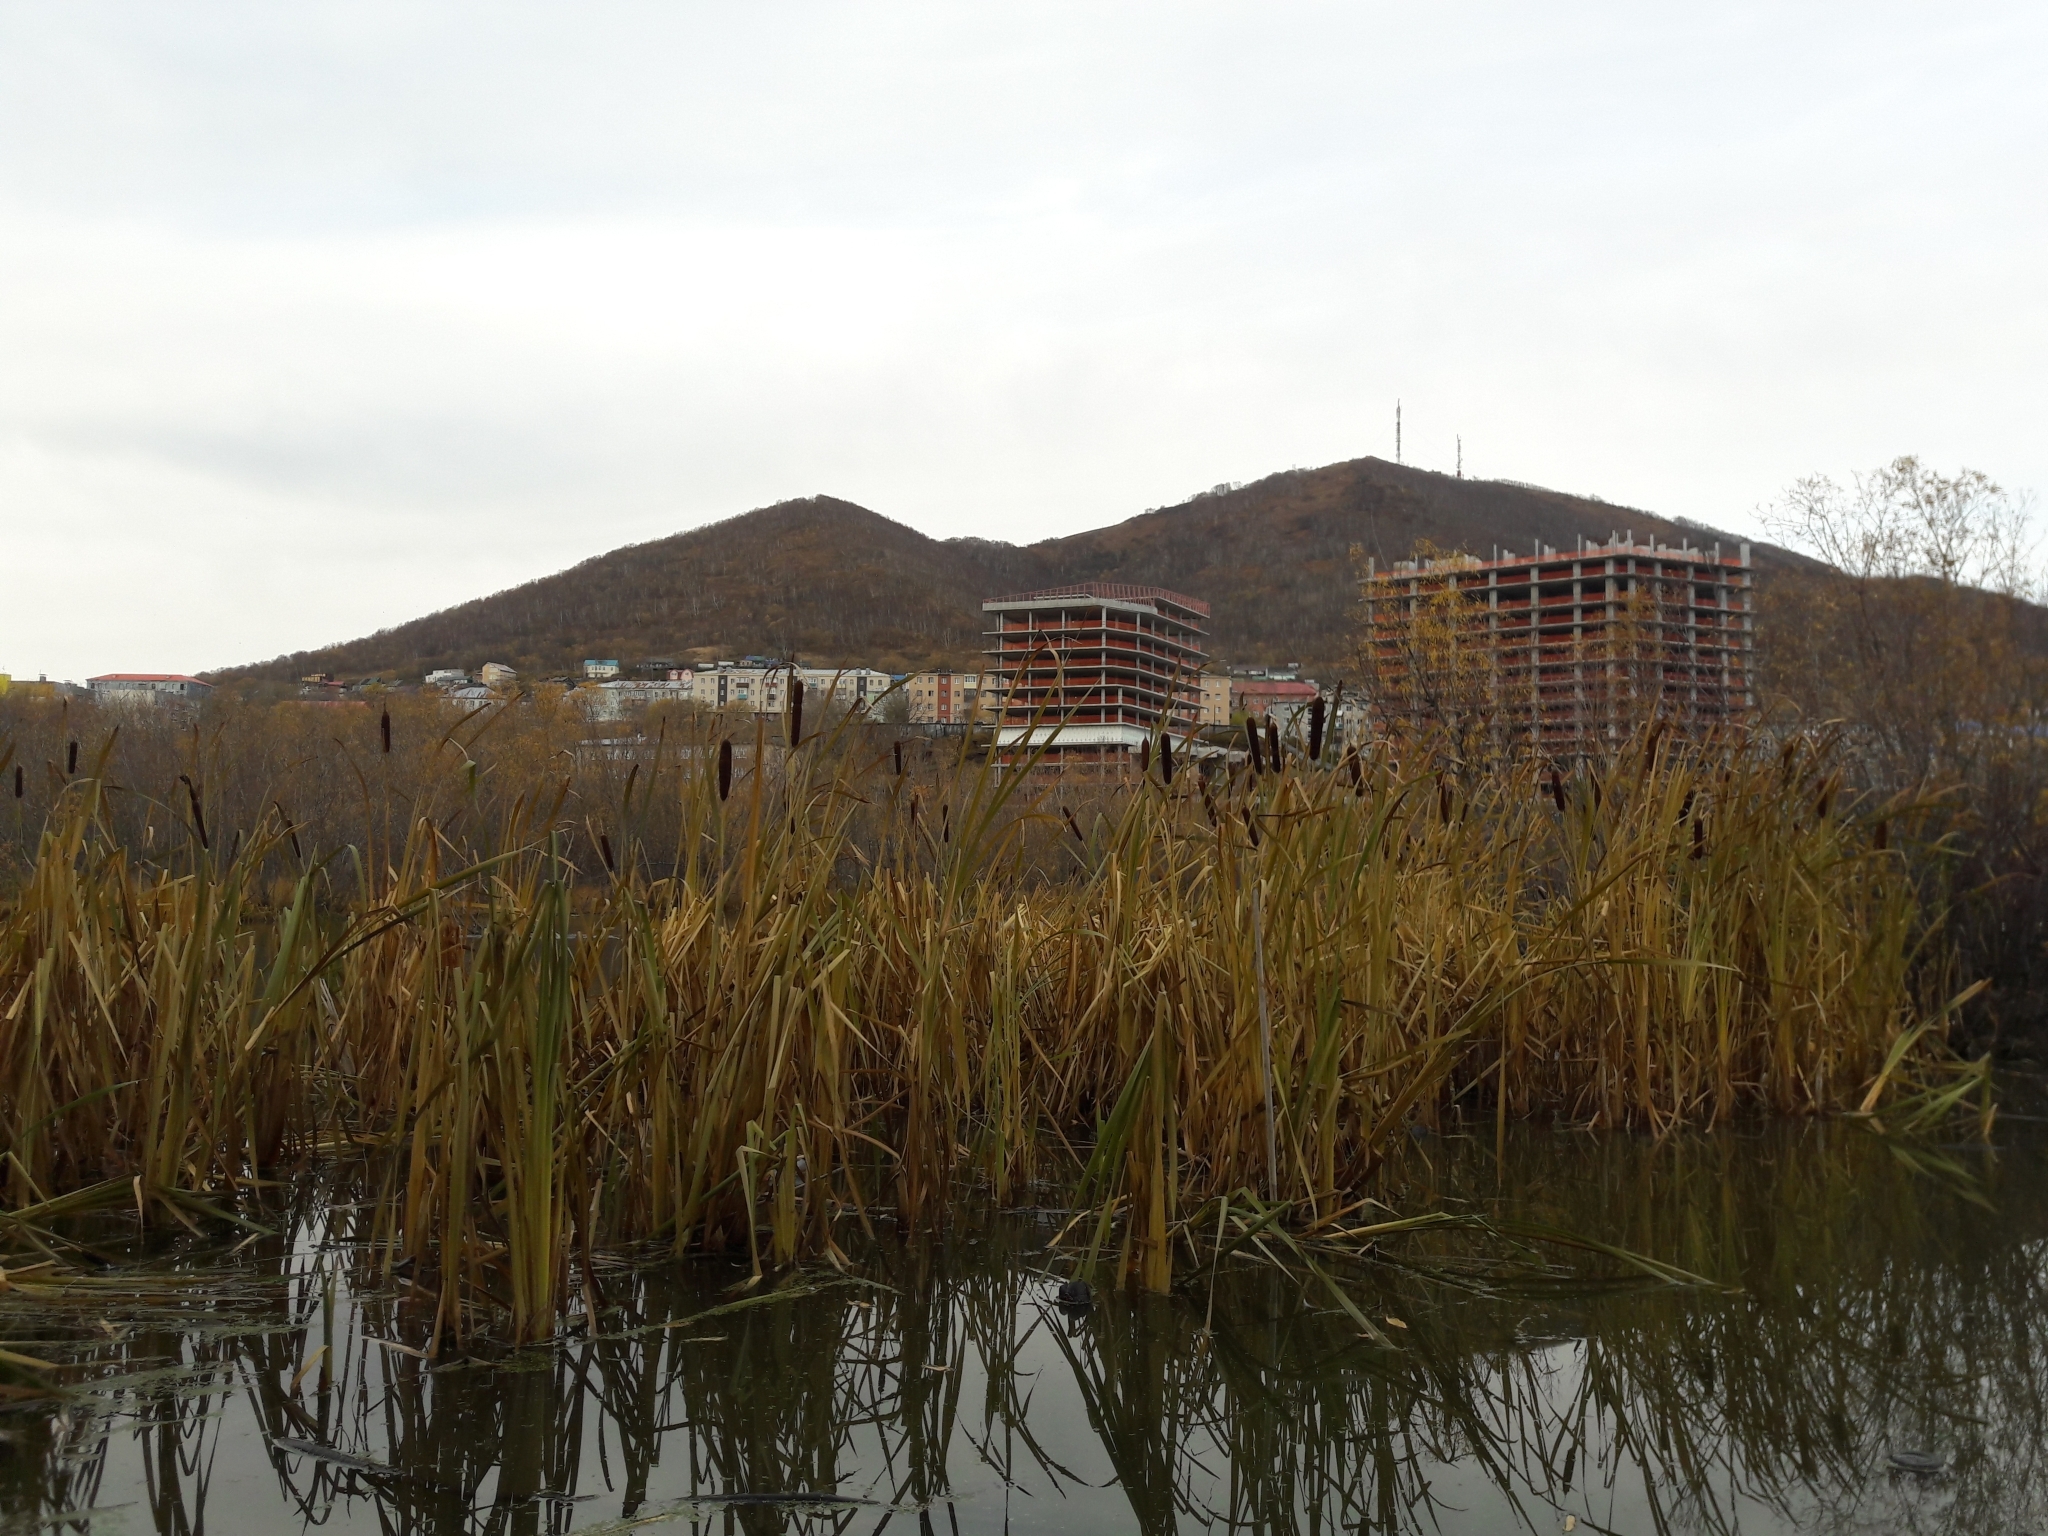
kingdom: Plantae
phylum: Tracheophyta
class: Liliopsida
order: Poales
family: Typhaceae
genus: Typha
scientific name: Typha latifolia
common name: Broadleaf cattail
